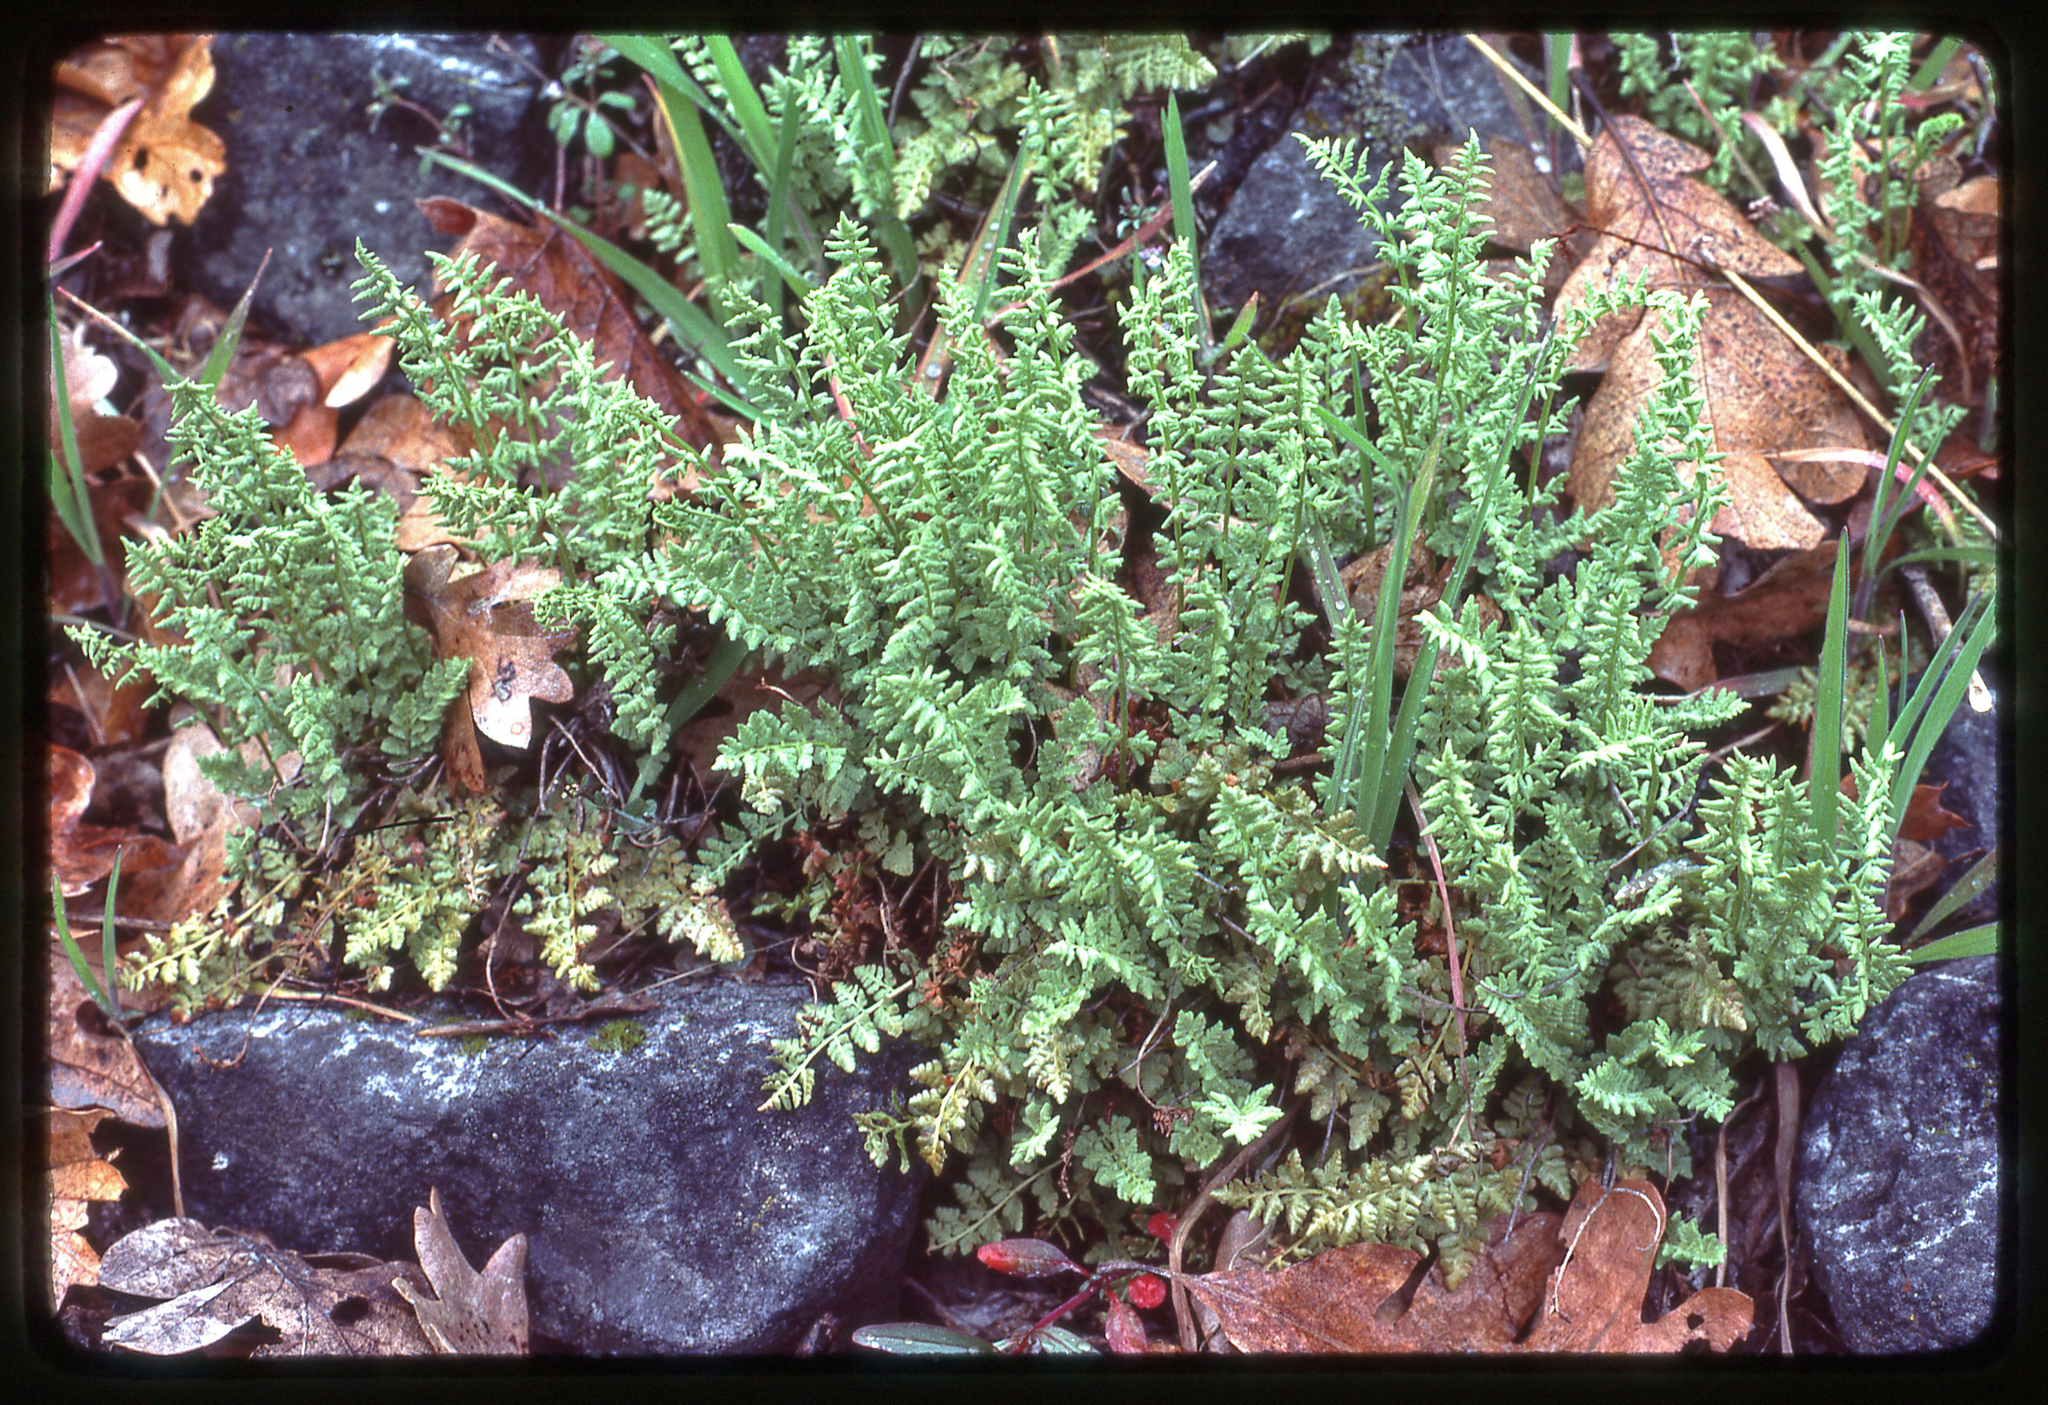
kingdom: Plantae
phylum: Tracheophyta
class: Polypodiopsida
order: Polypodiales
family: Woodsiaceae
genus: Physematium
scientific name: Physematium oreganum
